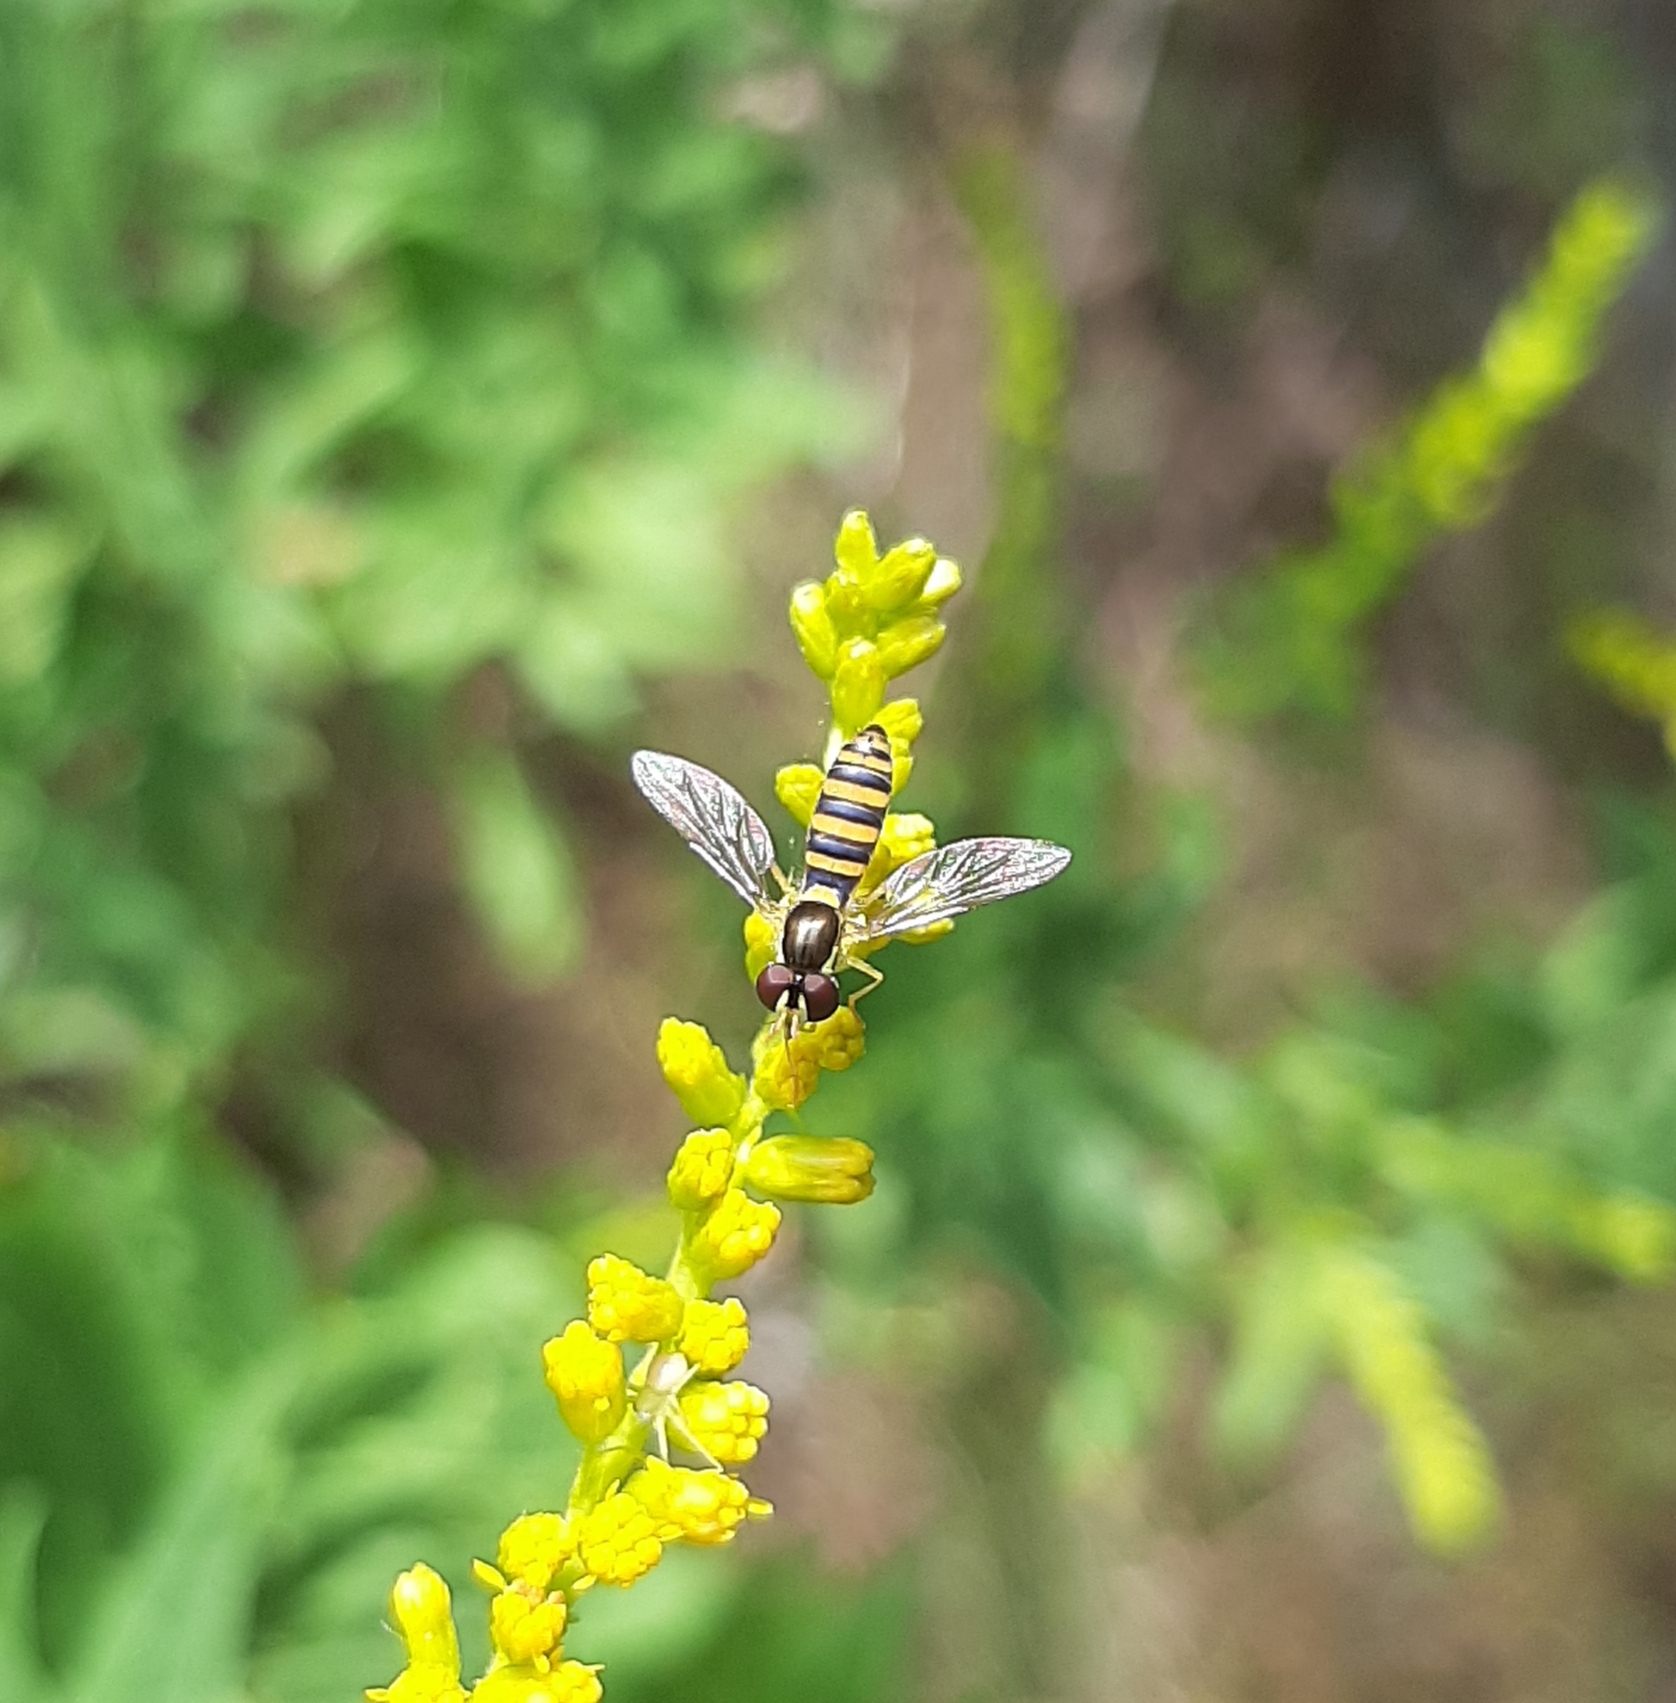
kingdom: Animalia
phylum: Arthropoda
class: Insecta
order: Diptera
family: Syrphidae
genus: Sphaerophoria
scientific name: Sphaerophoria
